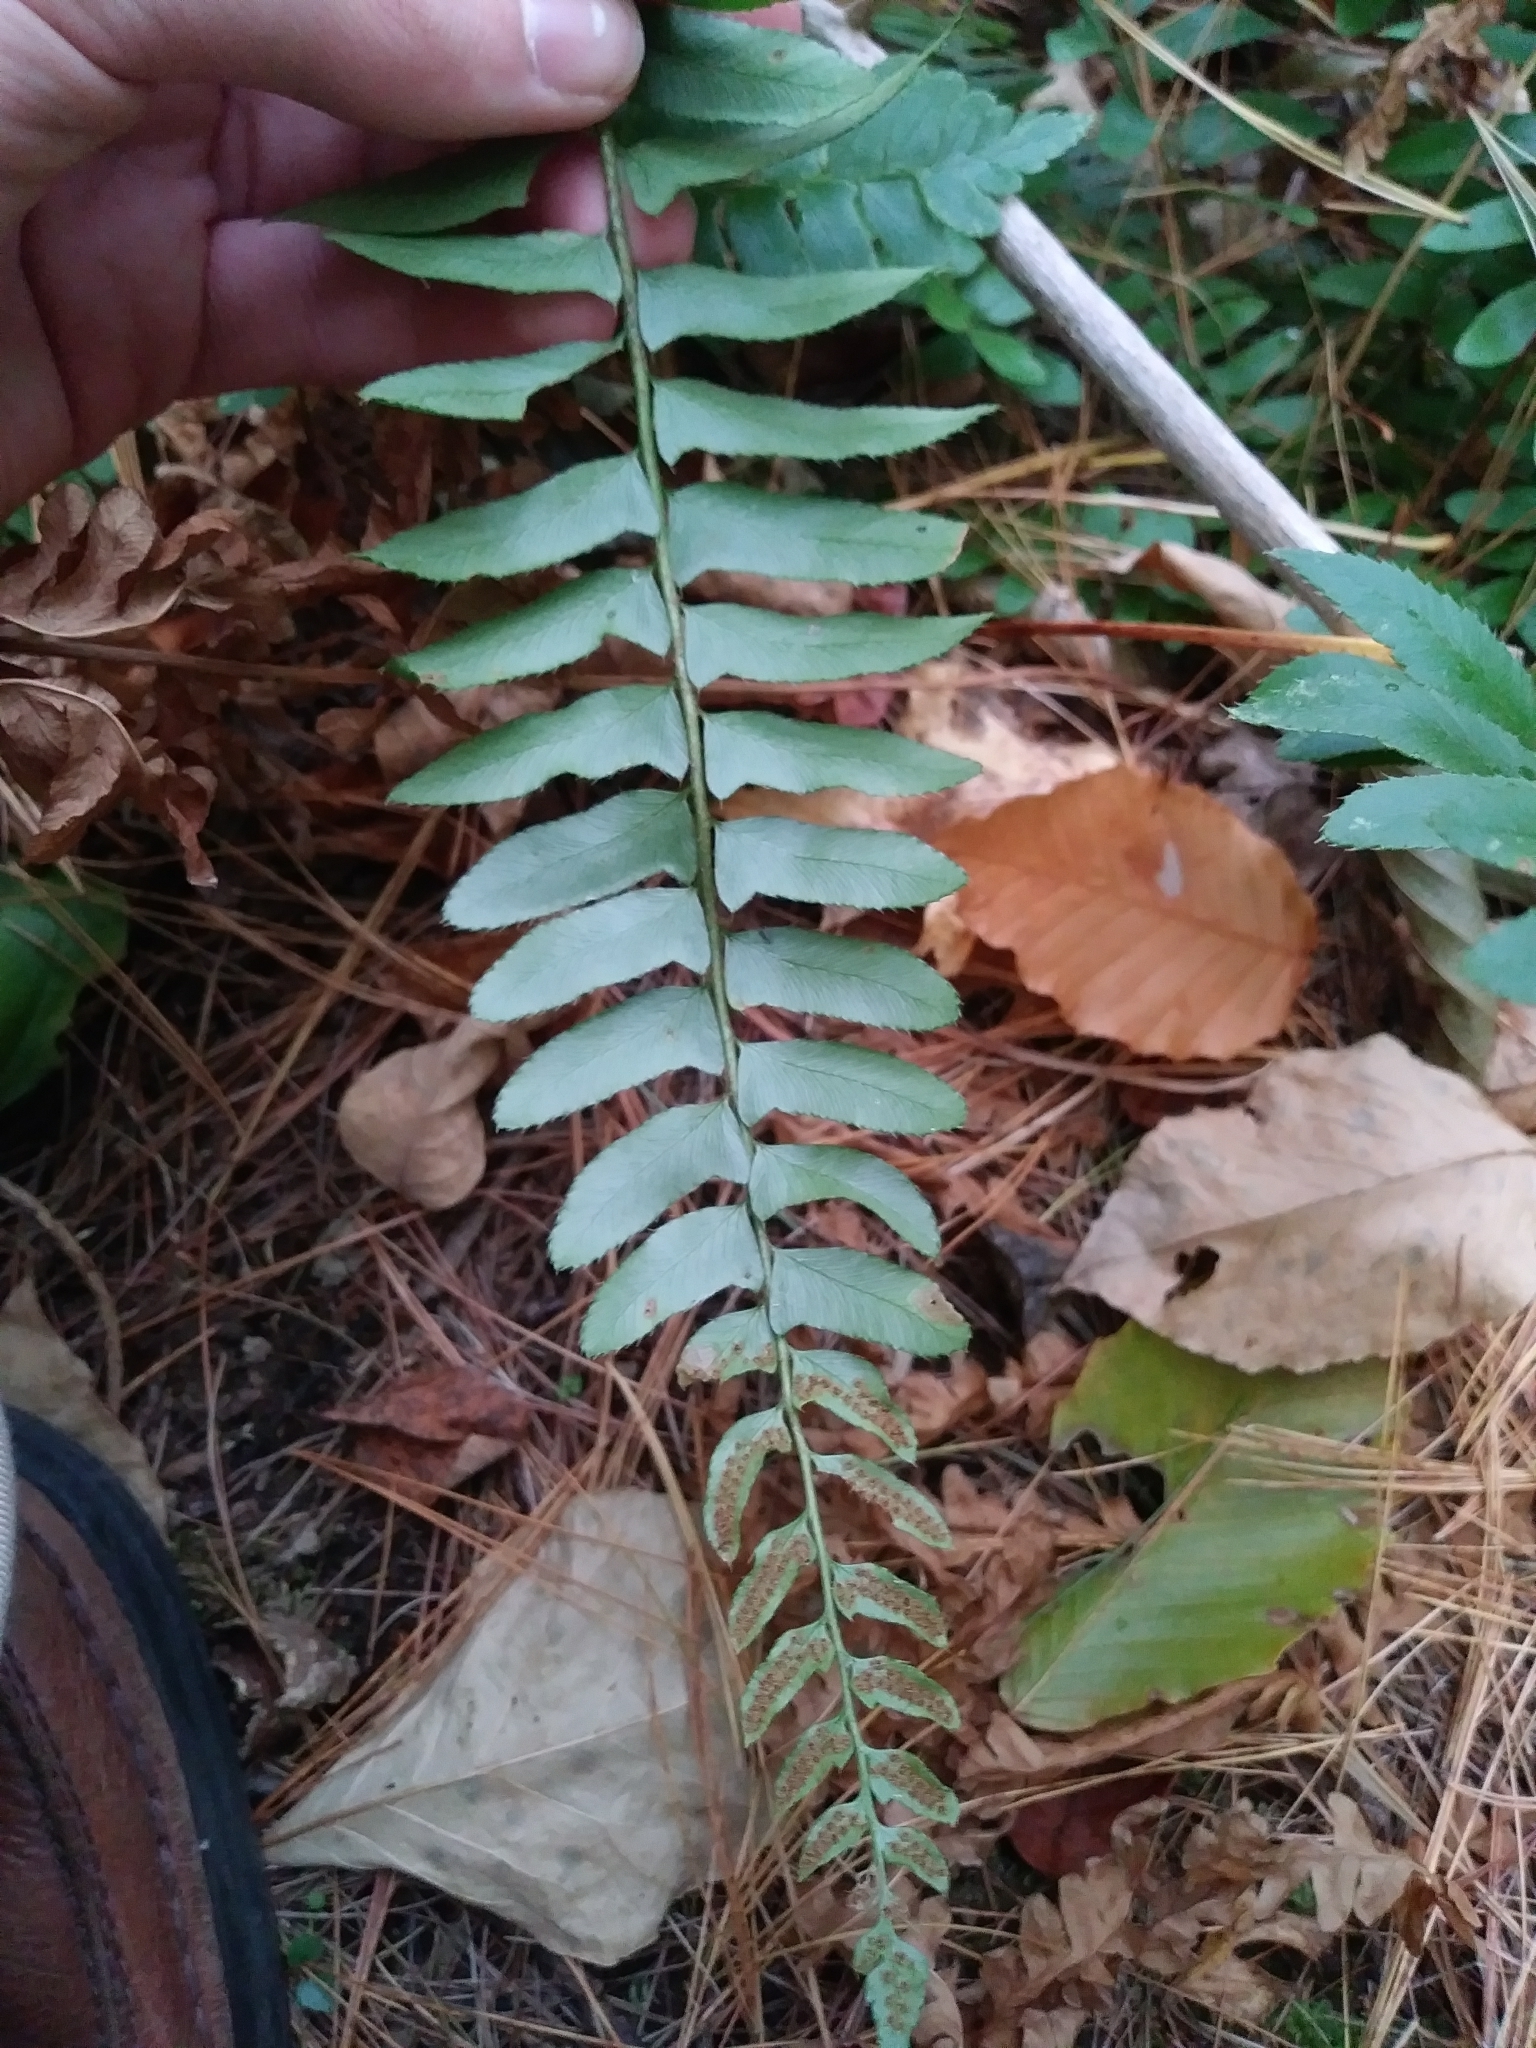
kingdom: Plantae
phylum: Tracheophyta
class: Polypodiopsida
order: Polypodiales
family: Dryopteridaceae
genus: Polystichum
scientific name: Polystichum acrostichoides
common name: Christmas fern
